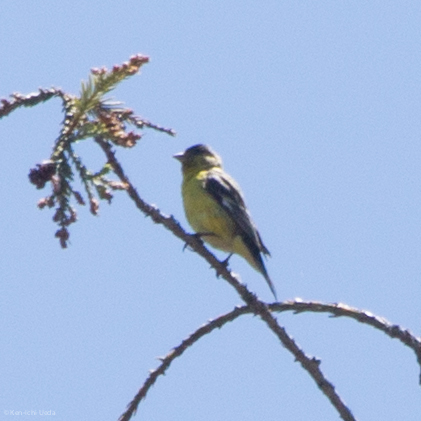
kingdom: Animalia
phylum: Chordata
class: Aves
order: Passeriformes
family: Fringillidae
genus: Spinus
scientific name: Spinus psaltria
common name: Lesser goldfinch
